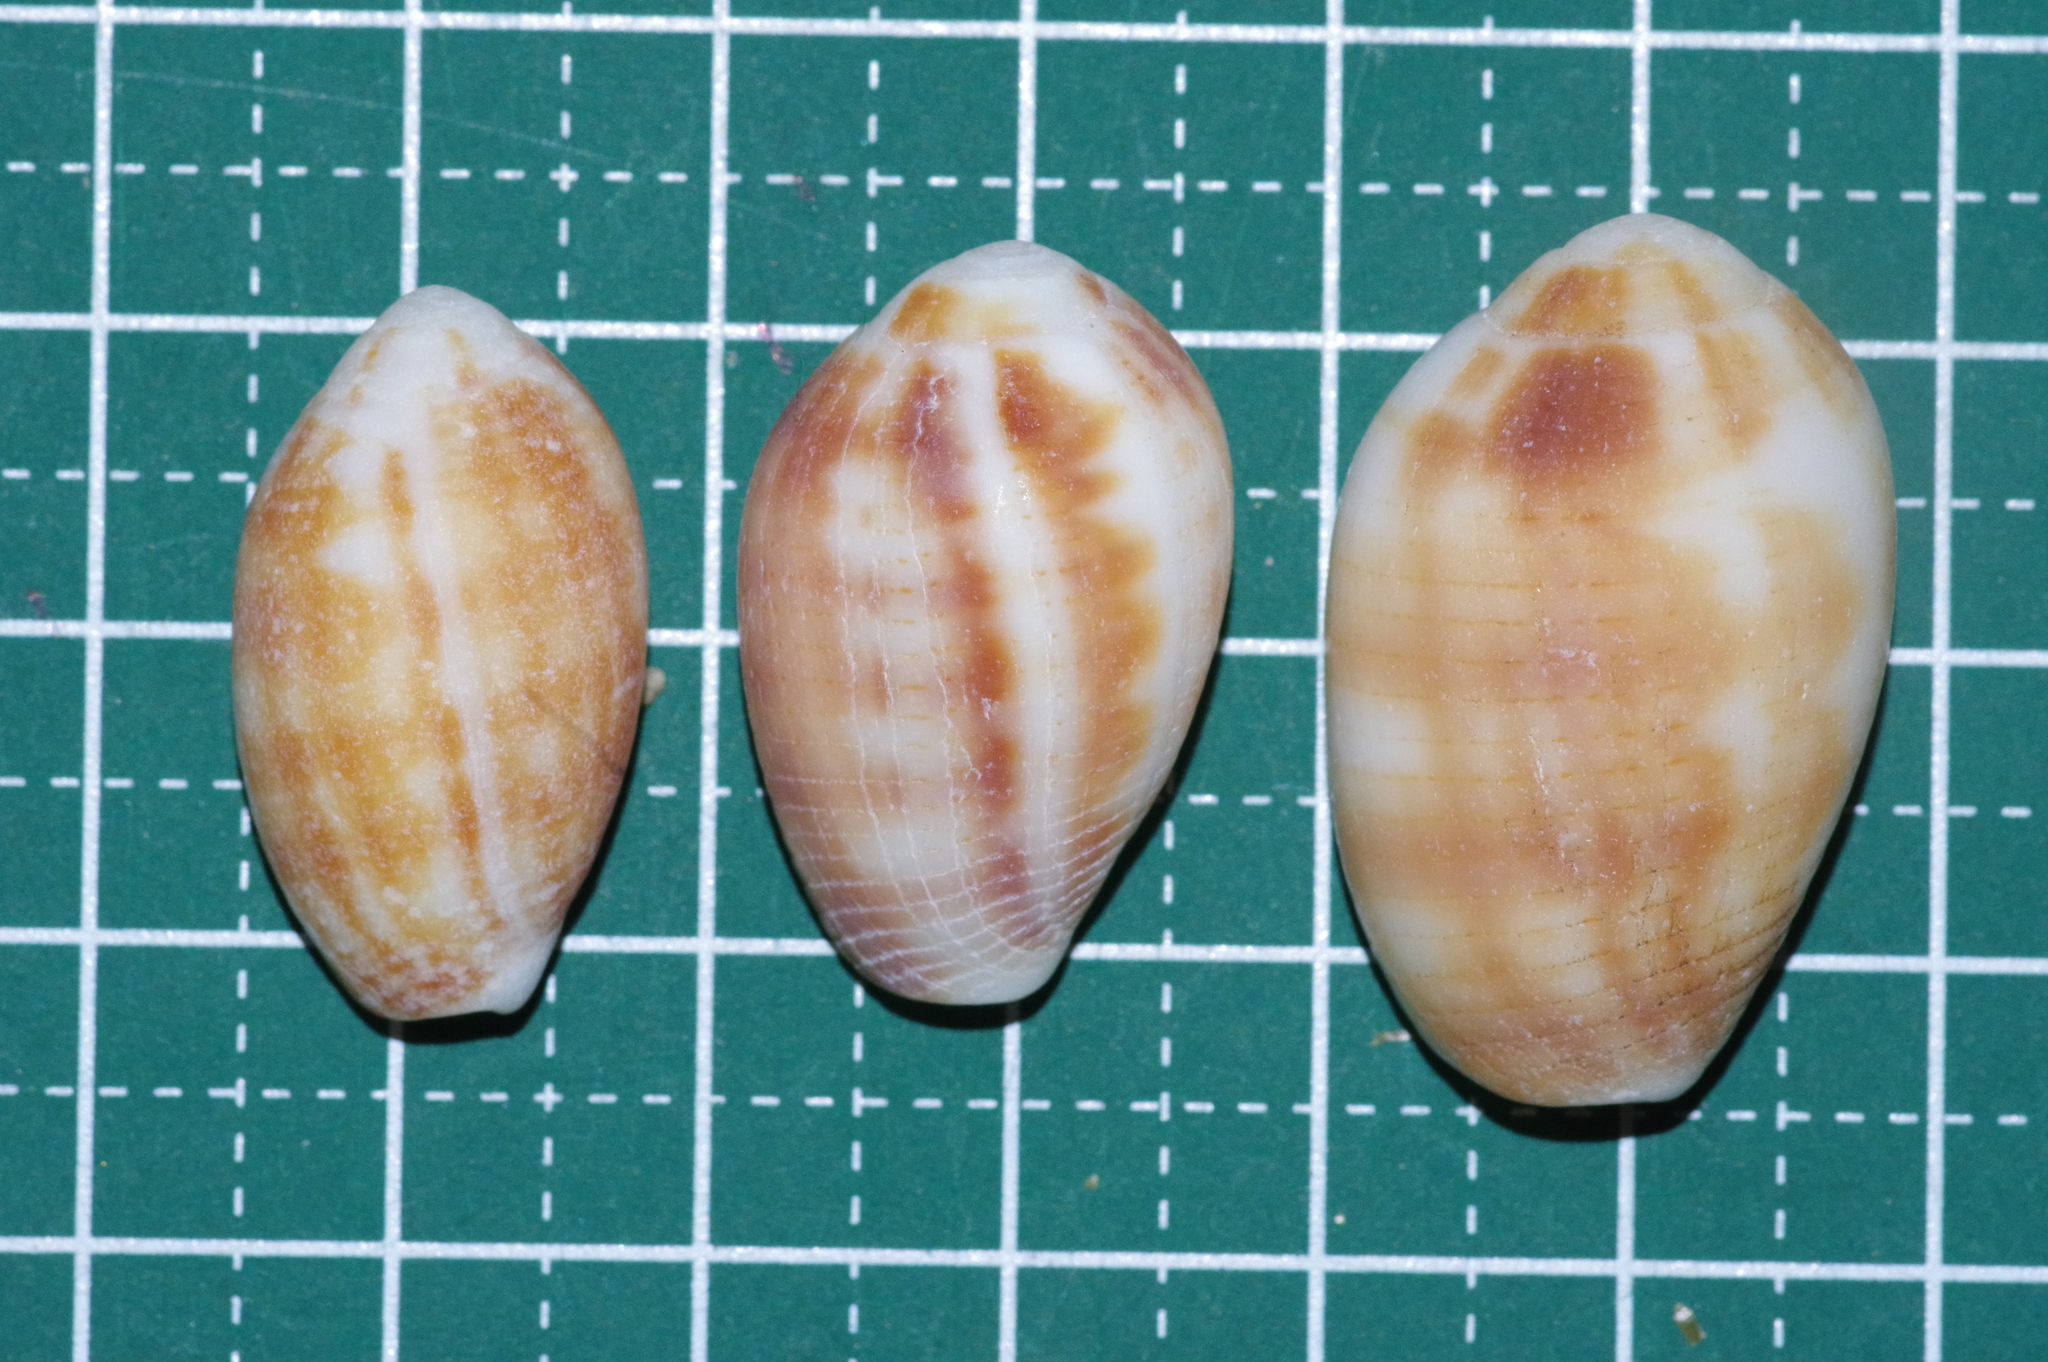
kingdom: Animalia
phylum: Mollusca
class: Gastropoda
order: Neogastropoda
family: Mitridae
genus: Pterygia
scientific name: Pterygia dactylus
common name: Finger miter
